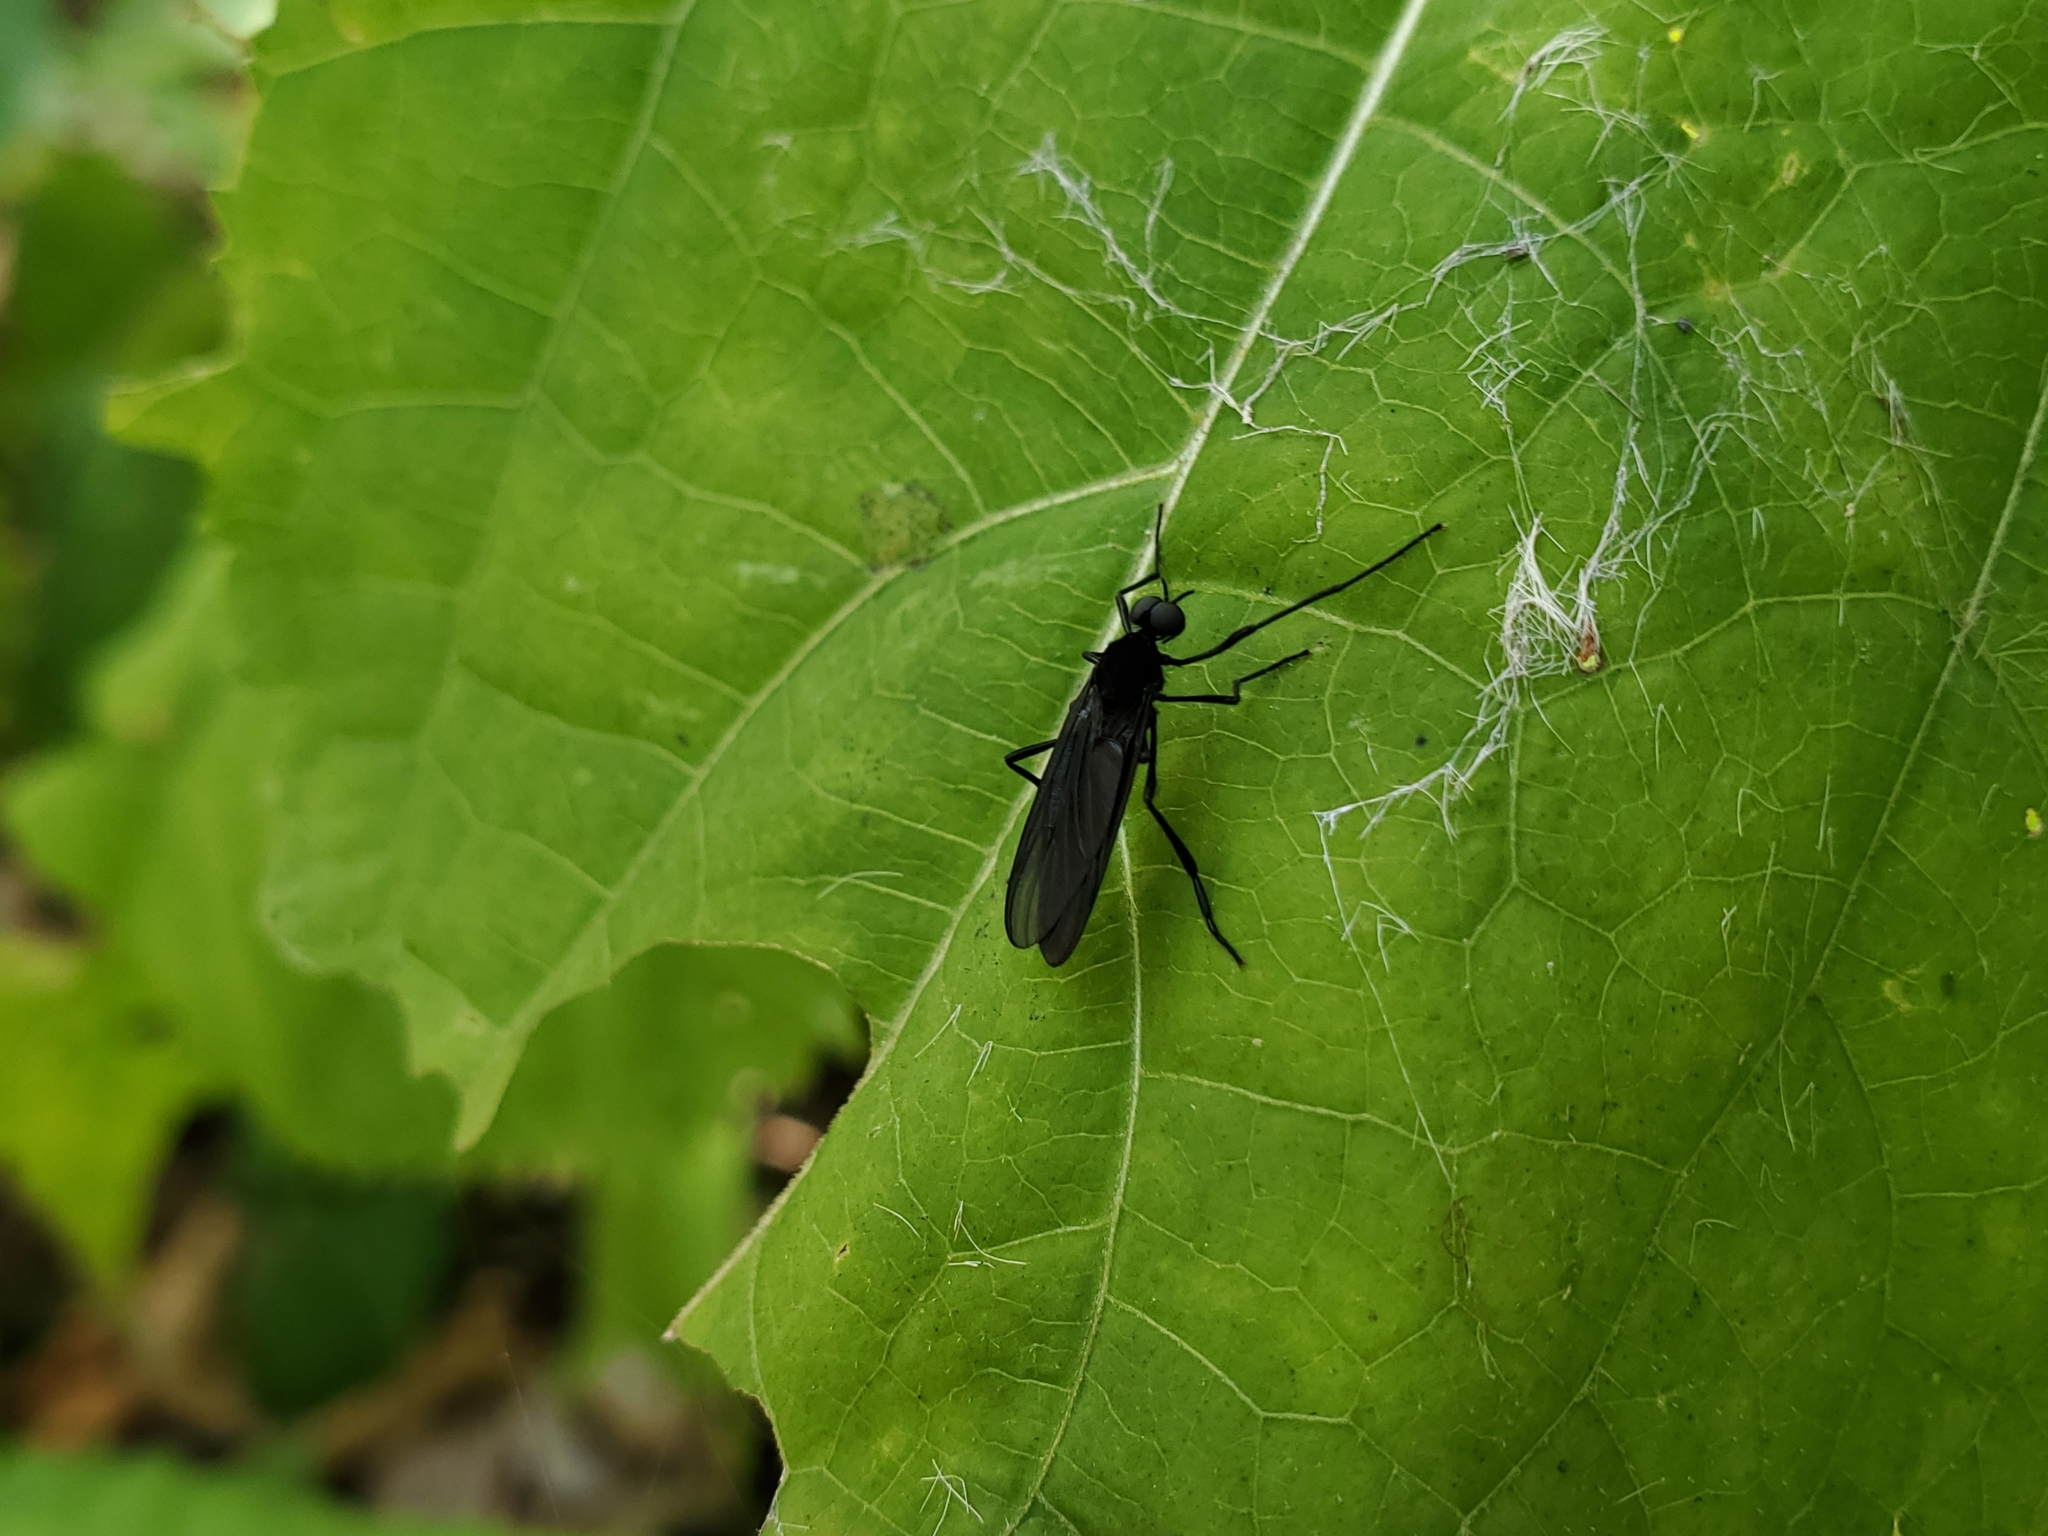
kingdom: Animalia
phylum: Arthropoda
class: Insecta
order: Diptera
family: Bibionidae
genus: Penthetria
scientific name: Penthetria heteroptera
